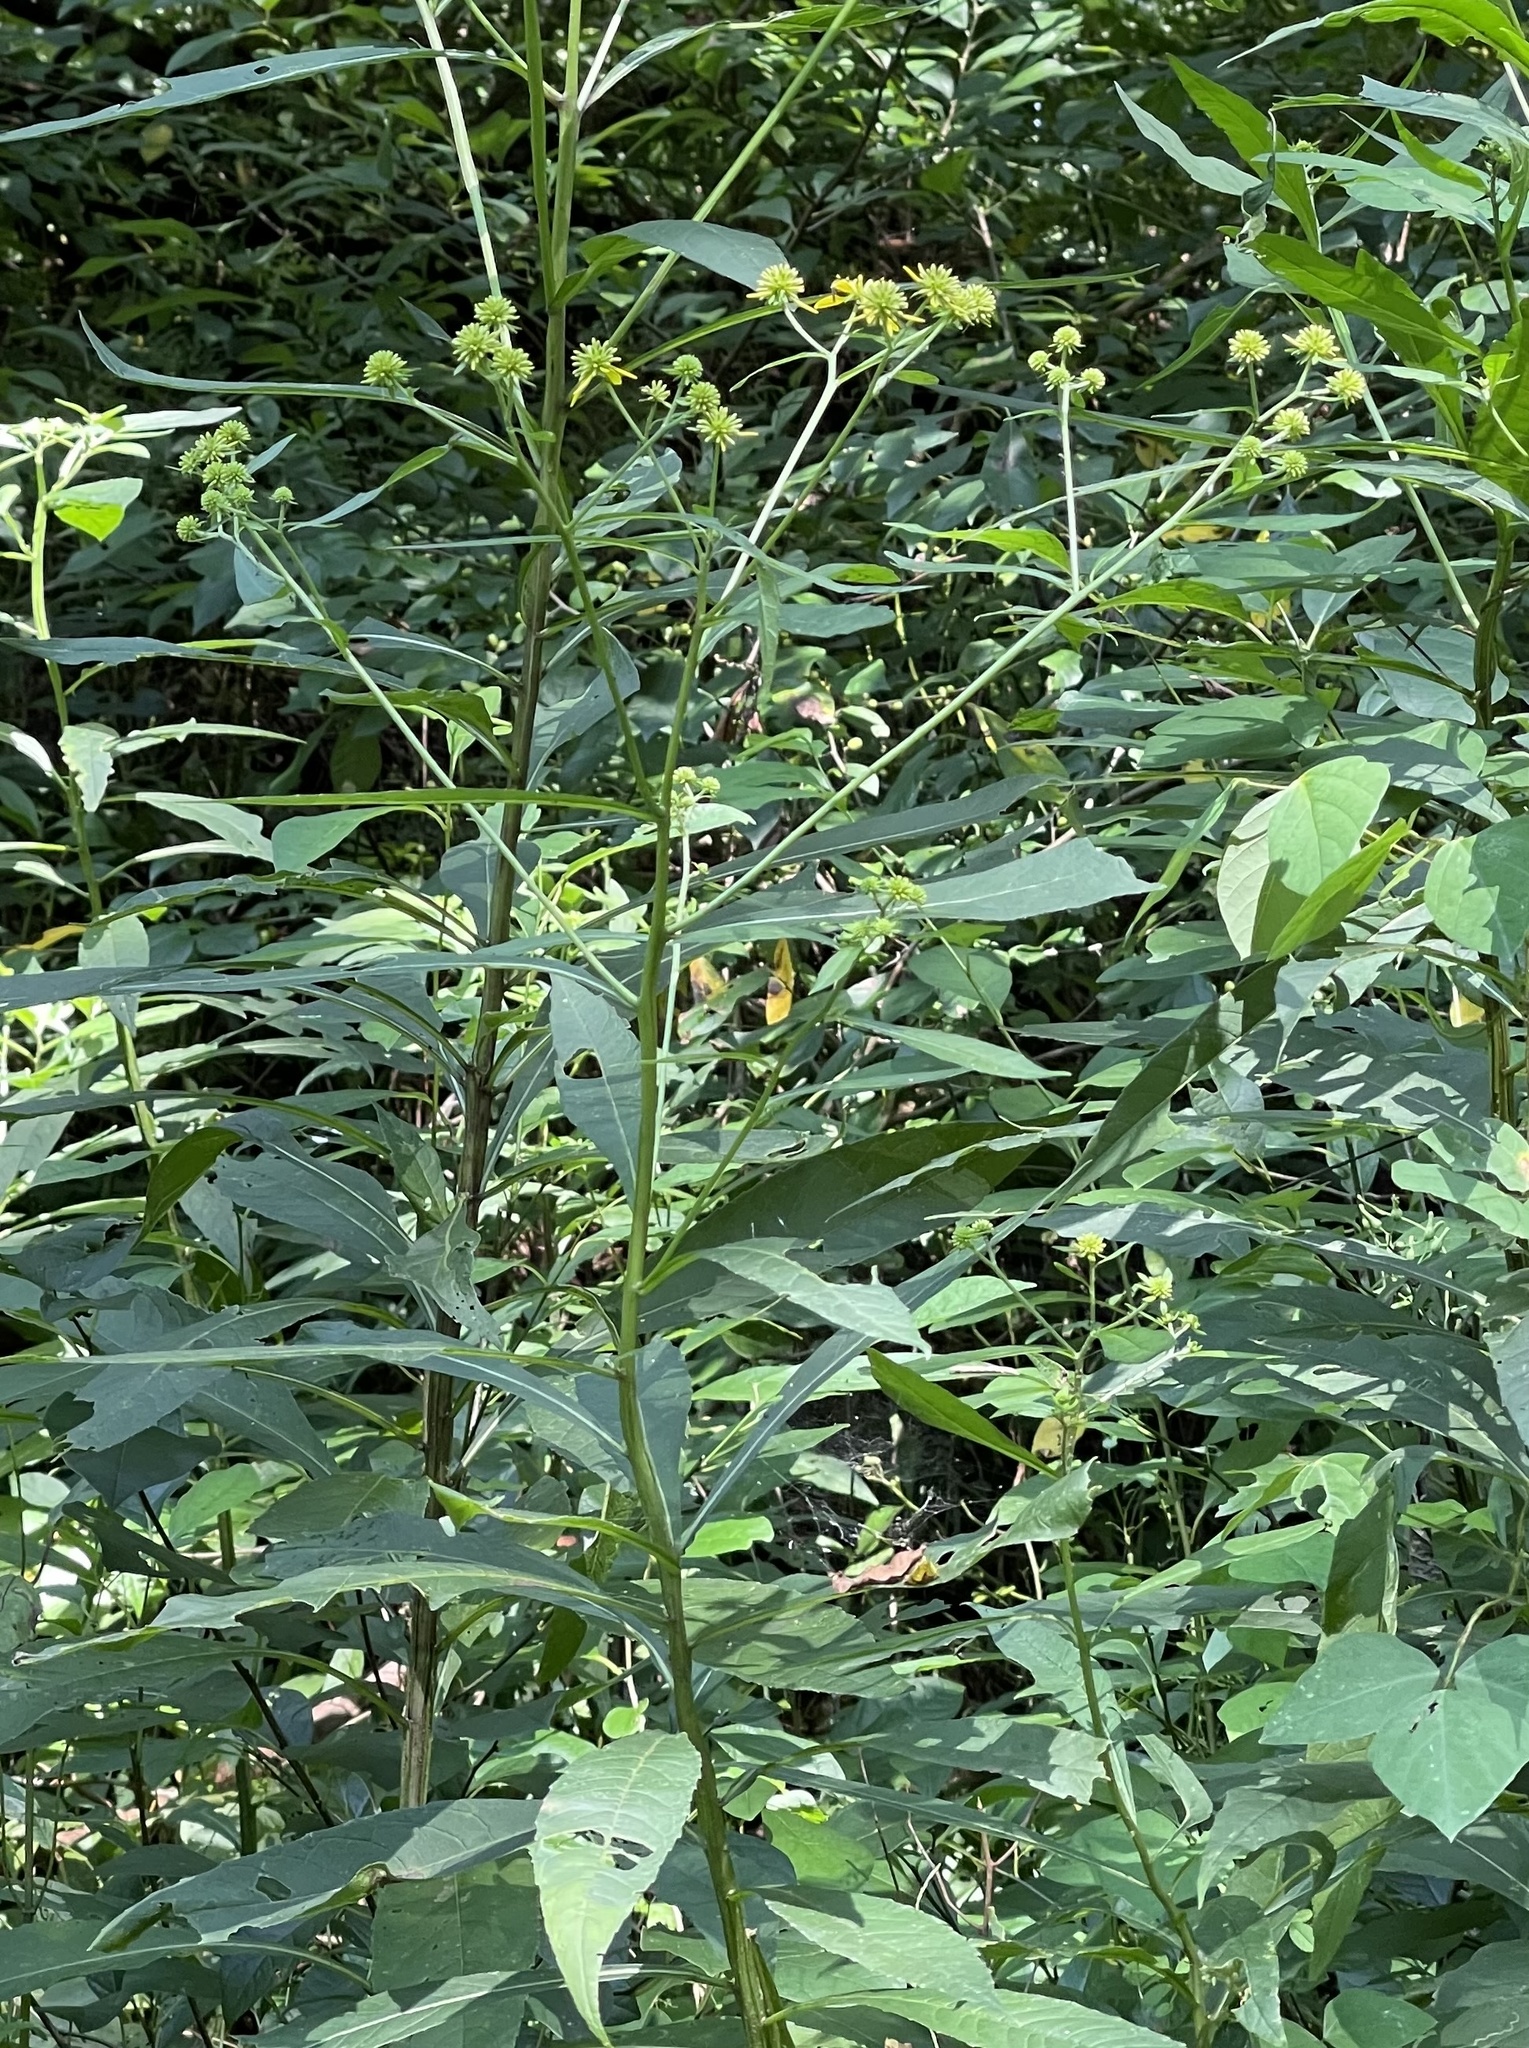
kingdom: Plantae
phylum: Tracheophyta
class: Magnoliopsida
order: Asterales
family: Asteraceae
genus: Verbesina
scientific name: Verbesina alternifolia
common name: Wingstem
